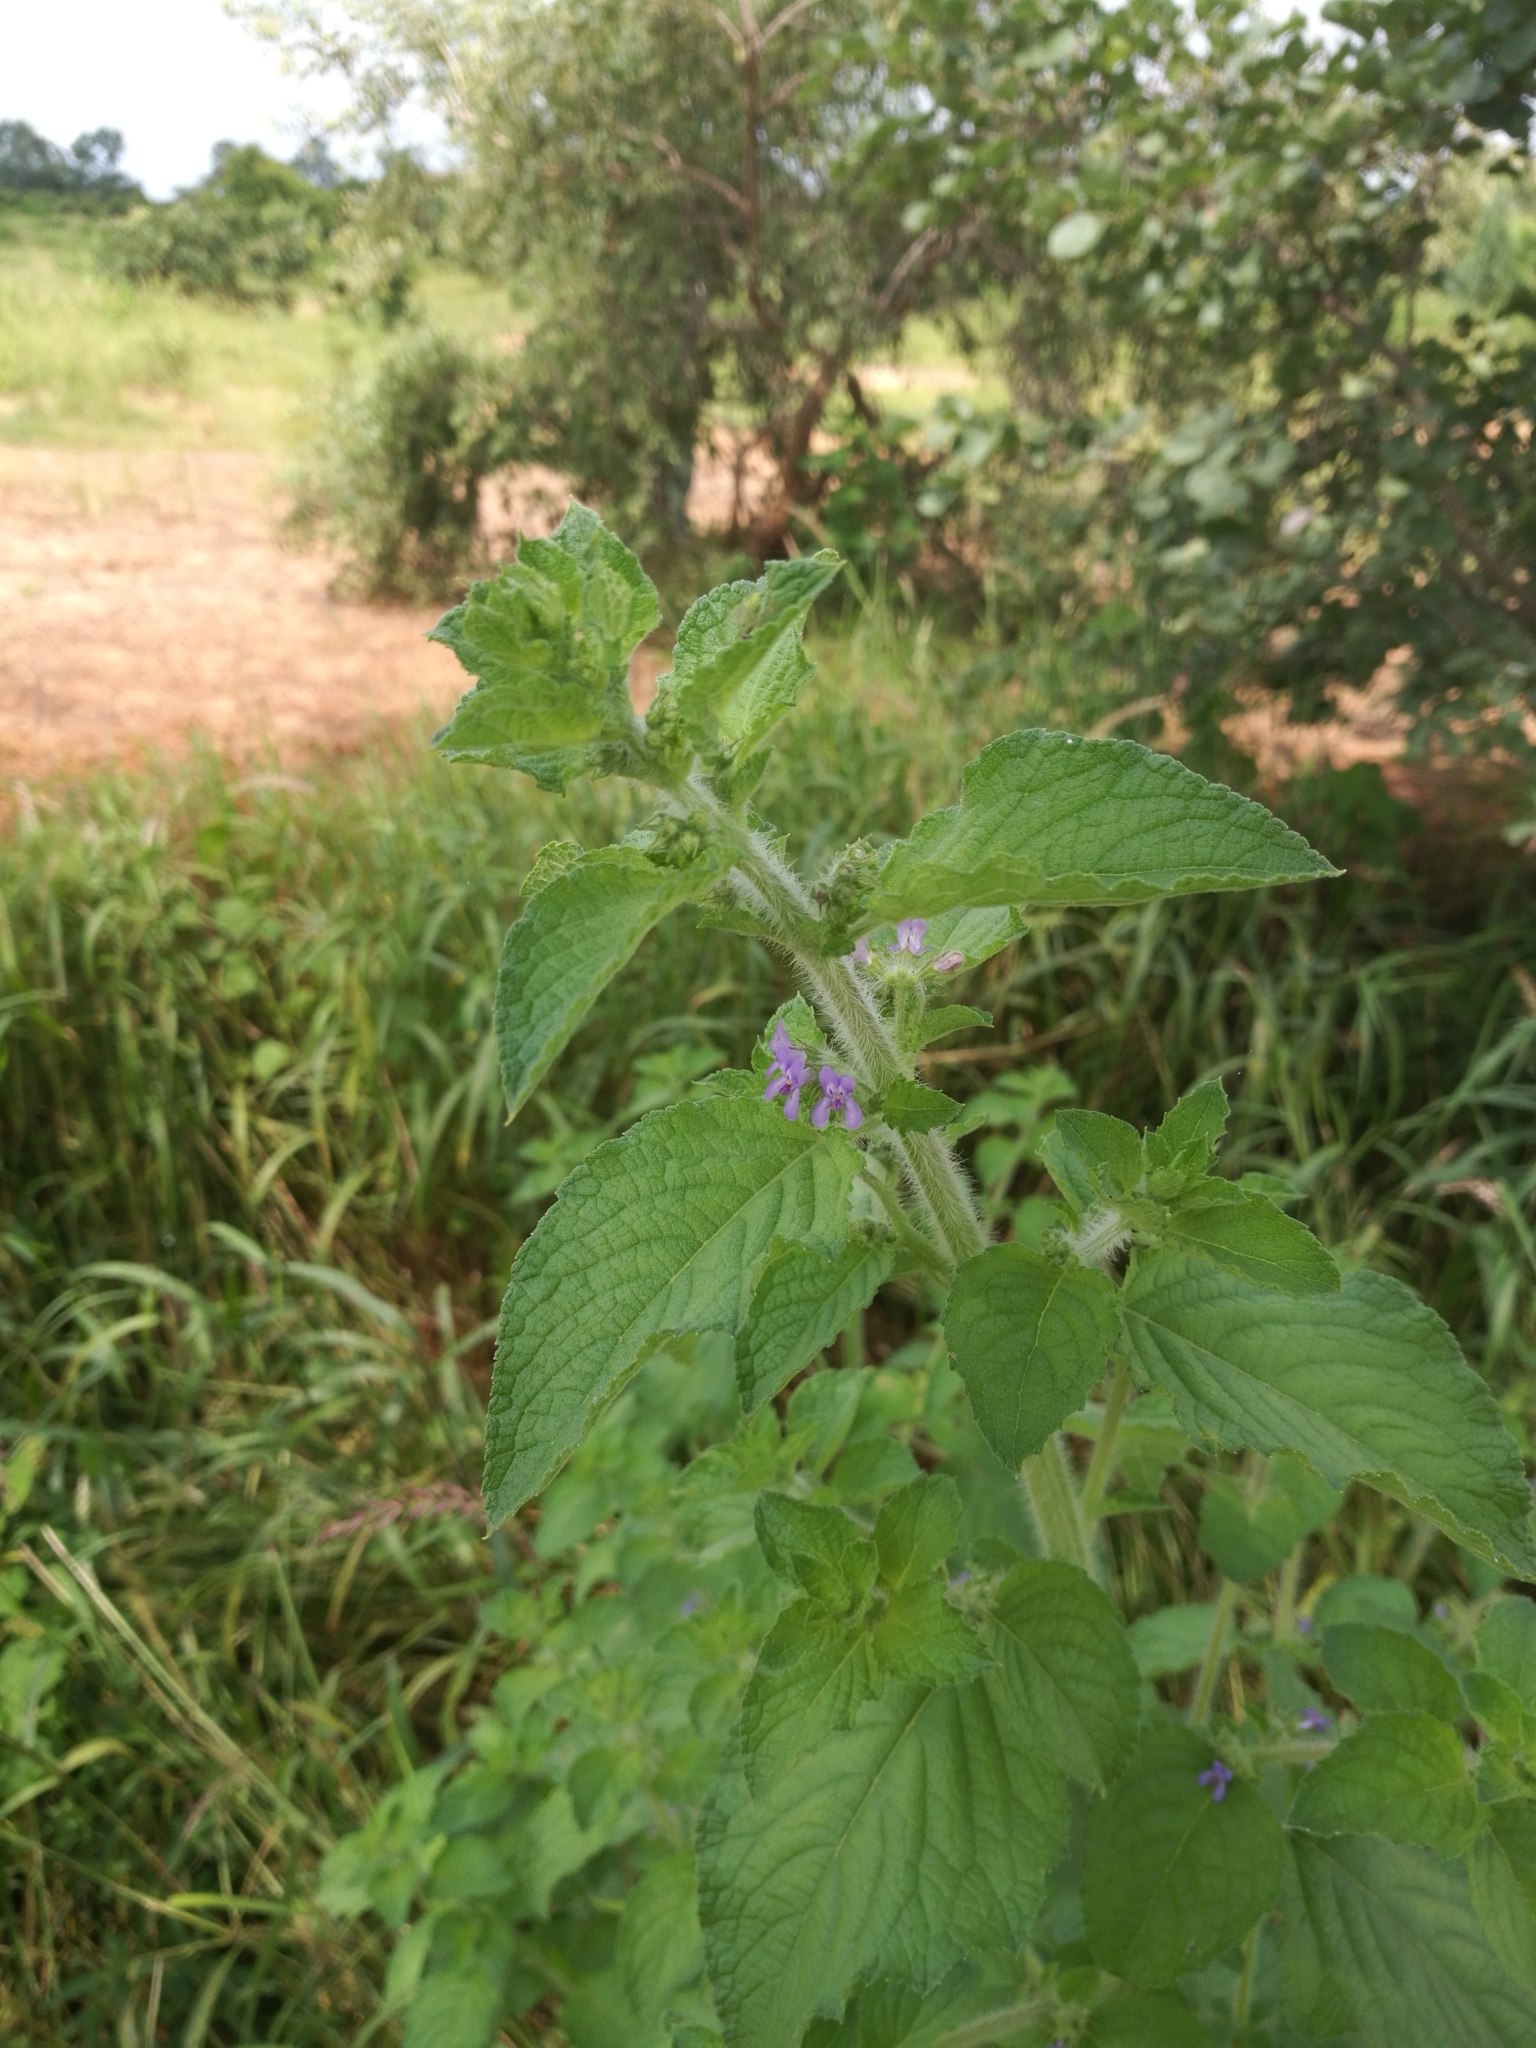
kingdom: Plantae
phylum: Tracheophyta
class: Magnoliopsida
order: Lamiales
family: Lamiaceae
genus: Mesosphaerum
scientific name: Mesosphaerum suaveolens
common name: Pignut
